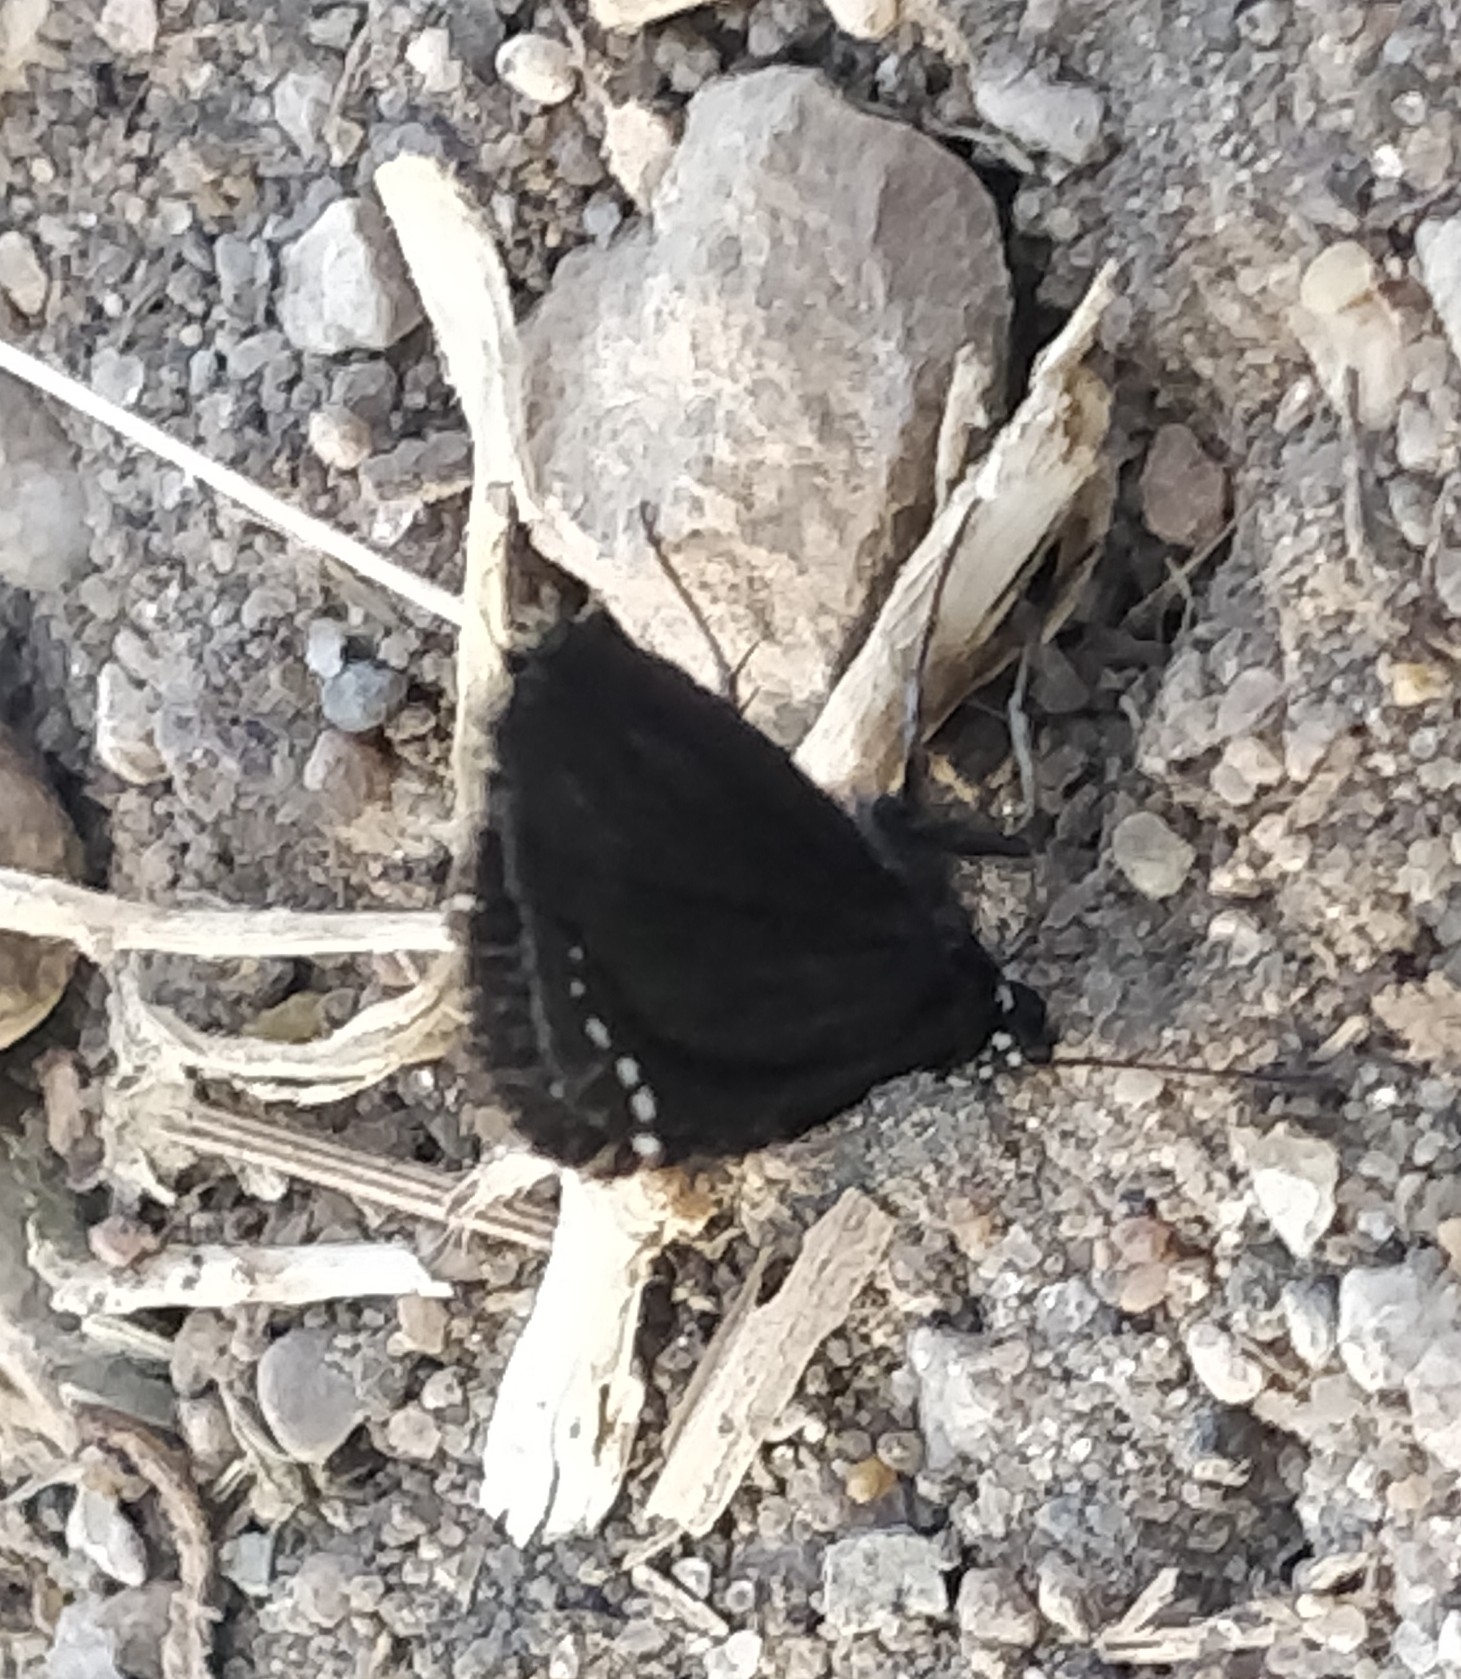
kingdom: Animalia
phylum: Arthropoda
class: Insecta
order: Lepidoptera
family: Hesperiidae
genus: Pholisora
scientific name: Pholisora catullus
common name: Common sootywing
